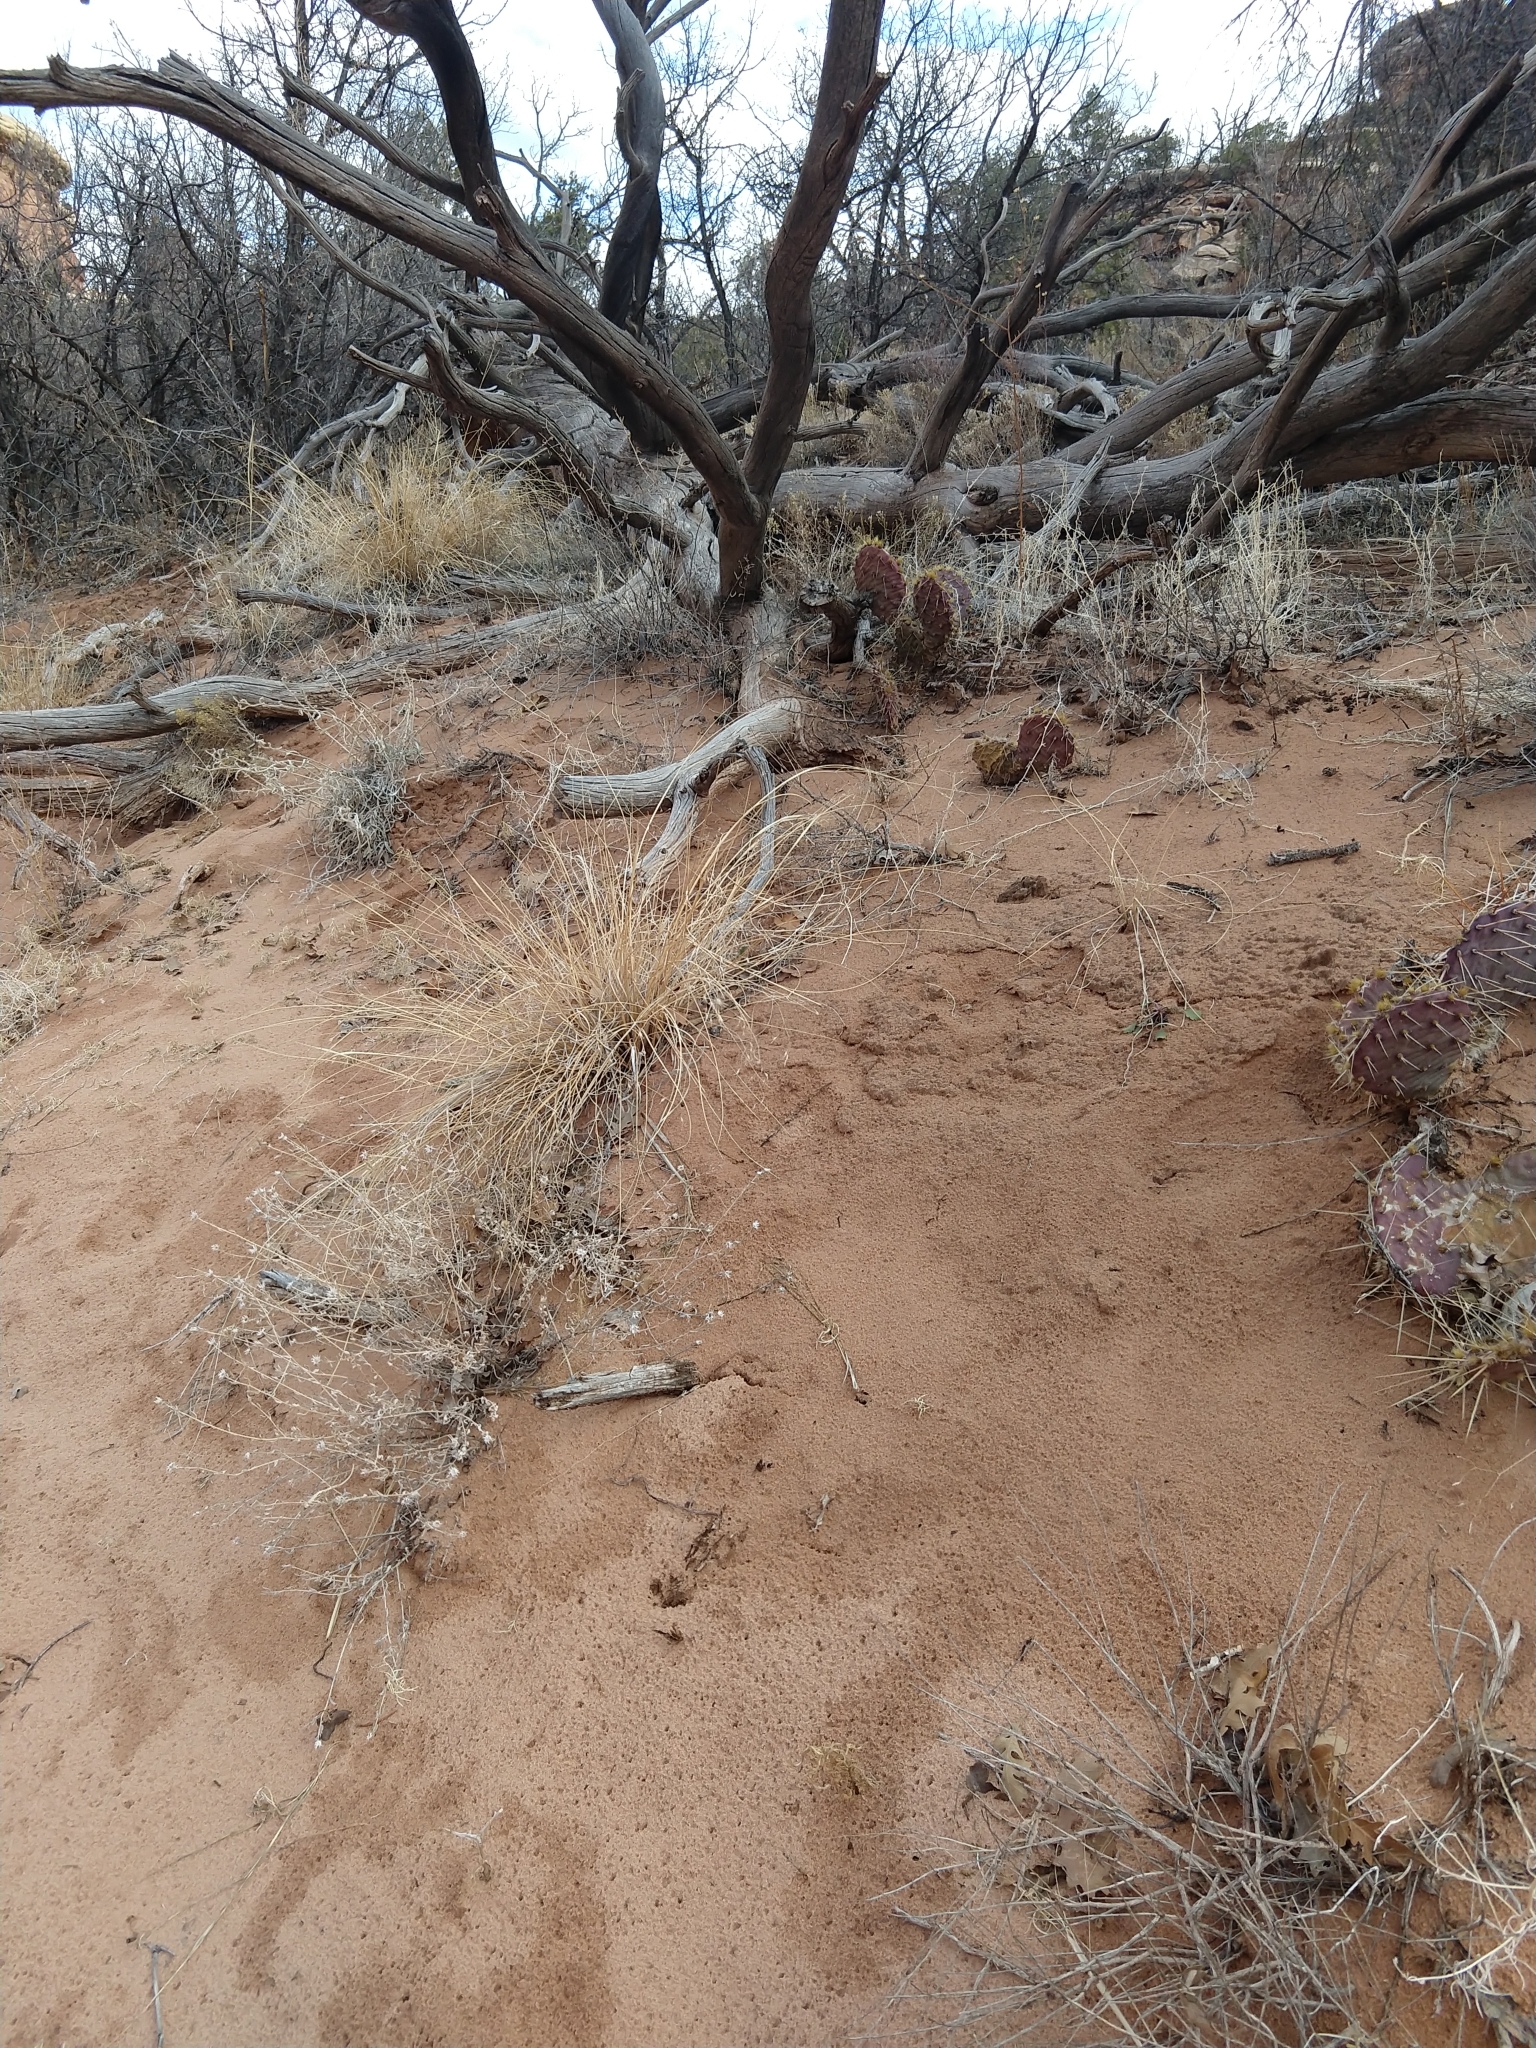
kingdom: Plantae
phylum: Tracheophyta
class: Liliopsida
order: Poales
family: Poaceae
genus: Eriocoma
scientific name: Eriocoma hymenoides
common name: Indian mountain ricegrass
